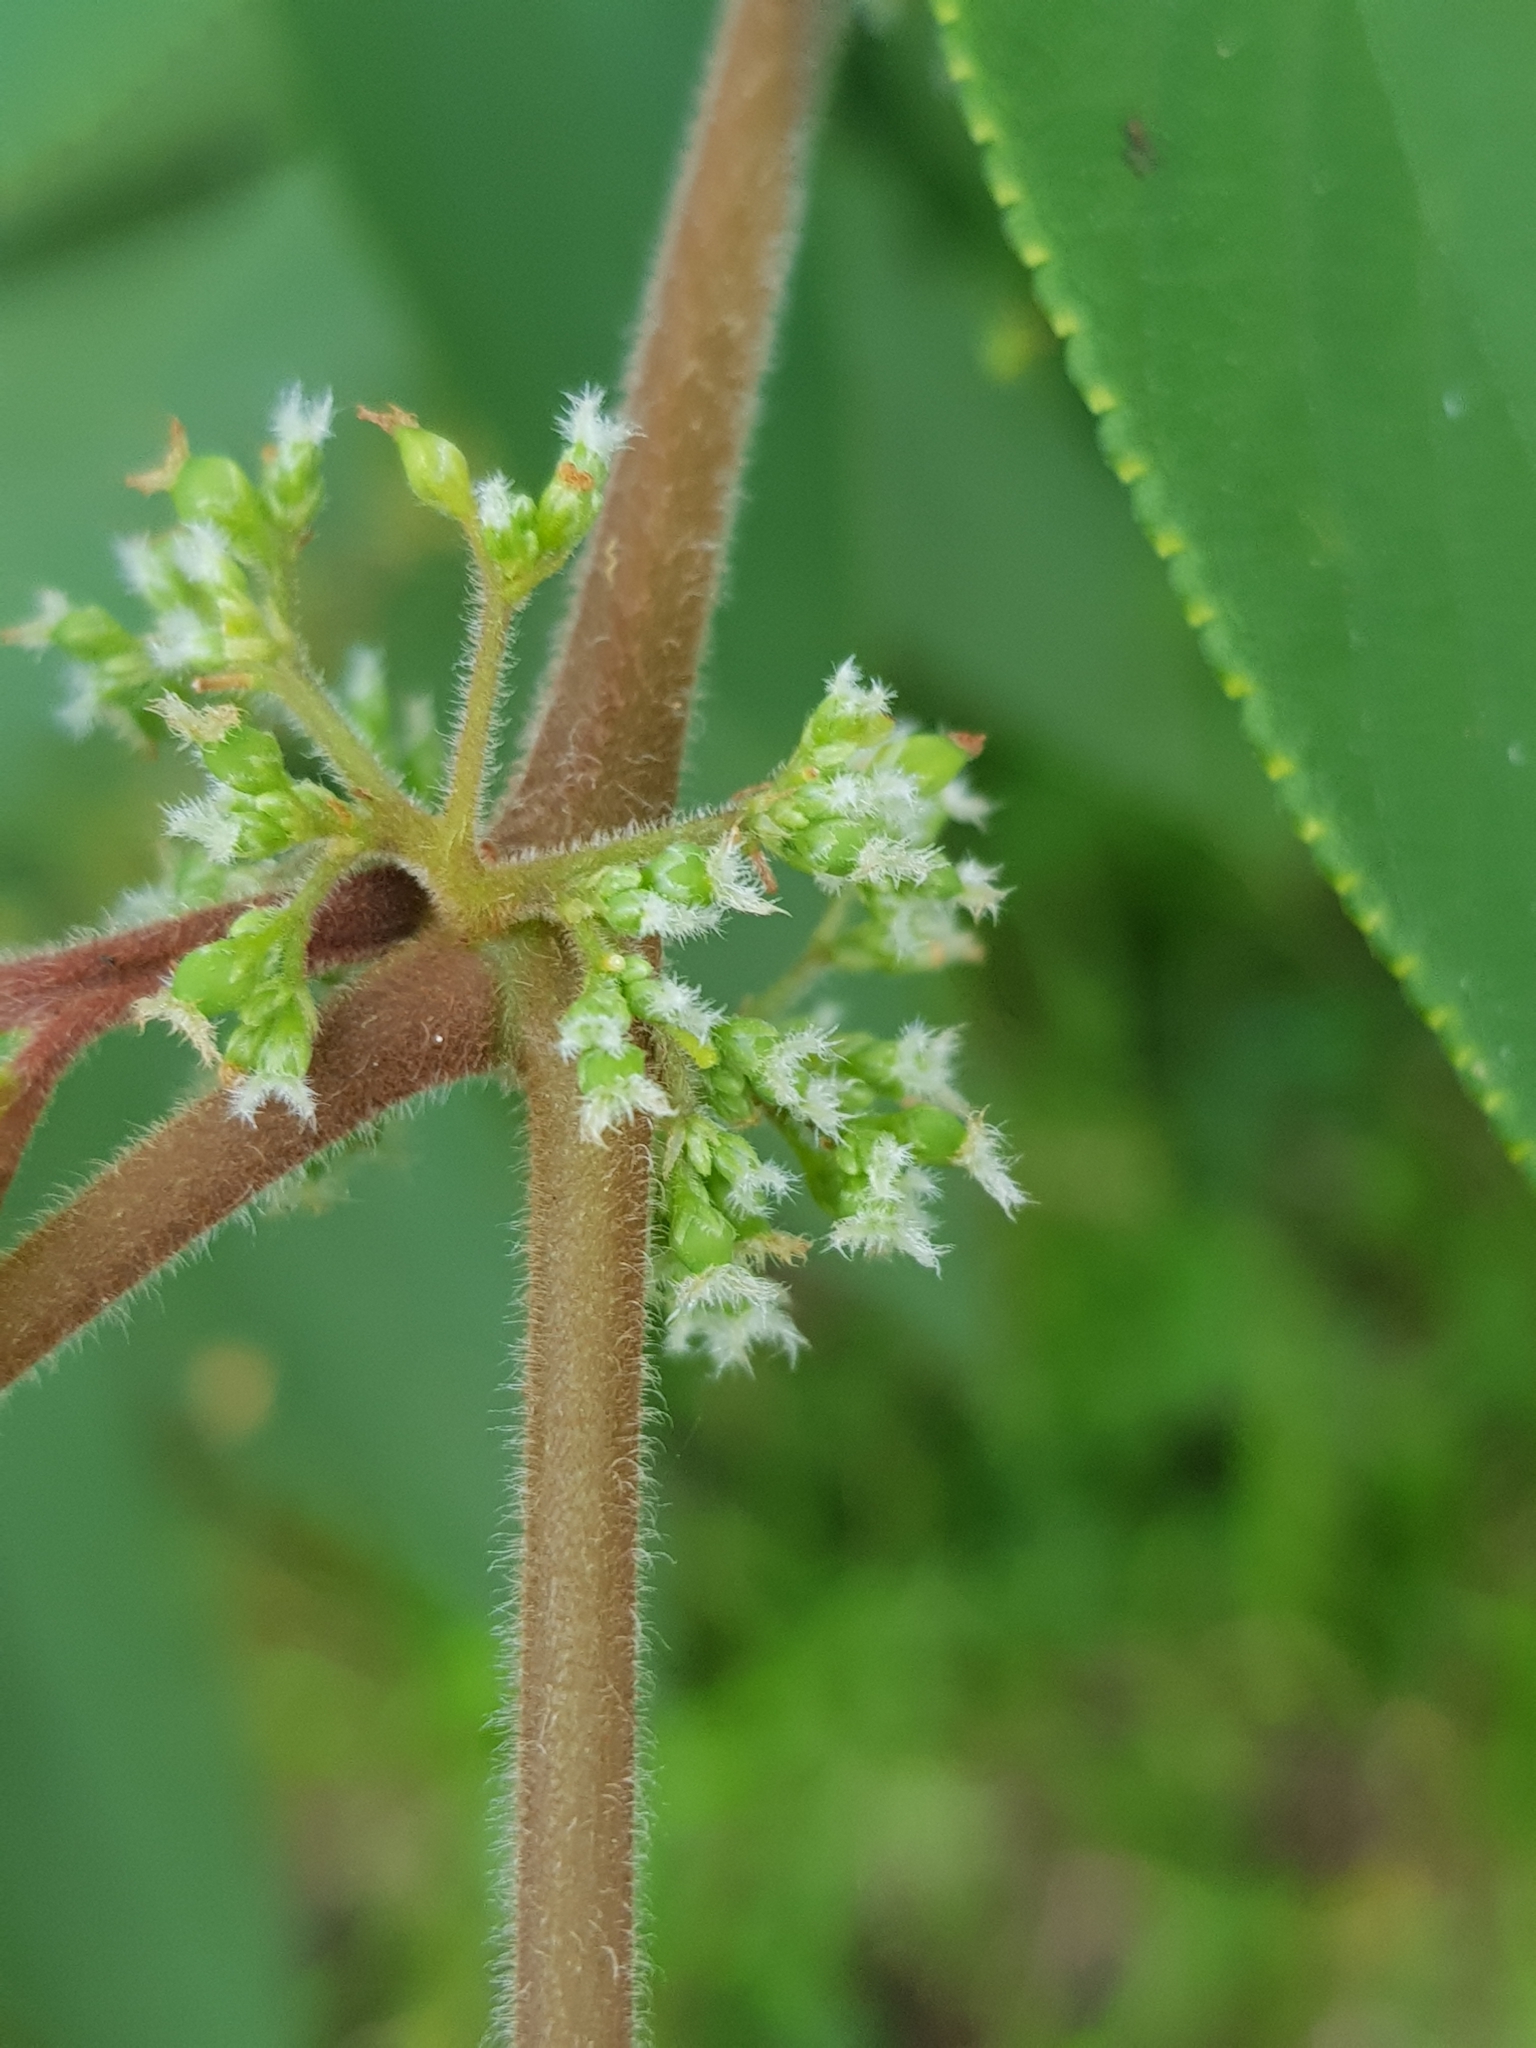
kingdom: Plantae
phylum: Tracheophyta
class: Magnoliopsida
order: Rosales
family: Cannabaceae
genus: Trema
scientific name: Trema tomentosum
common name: Peach-leaf-poisonbush
